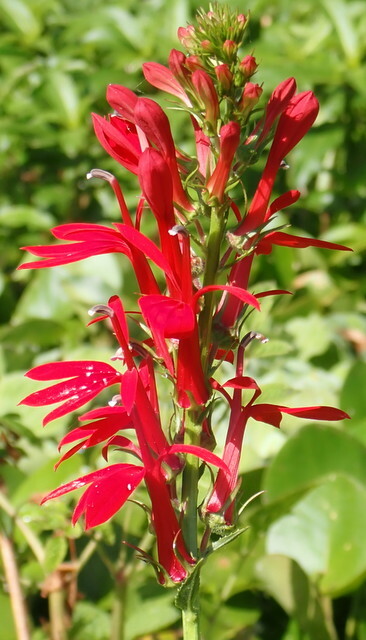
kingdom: Plantae
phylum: Tracheophyta
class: Magnoliopsida
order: Asterales
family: Campanulaceae
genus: Lobelia
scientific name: Lobelia cardinalis
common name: Cardinal flower
